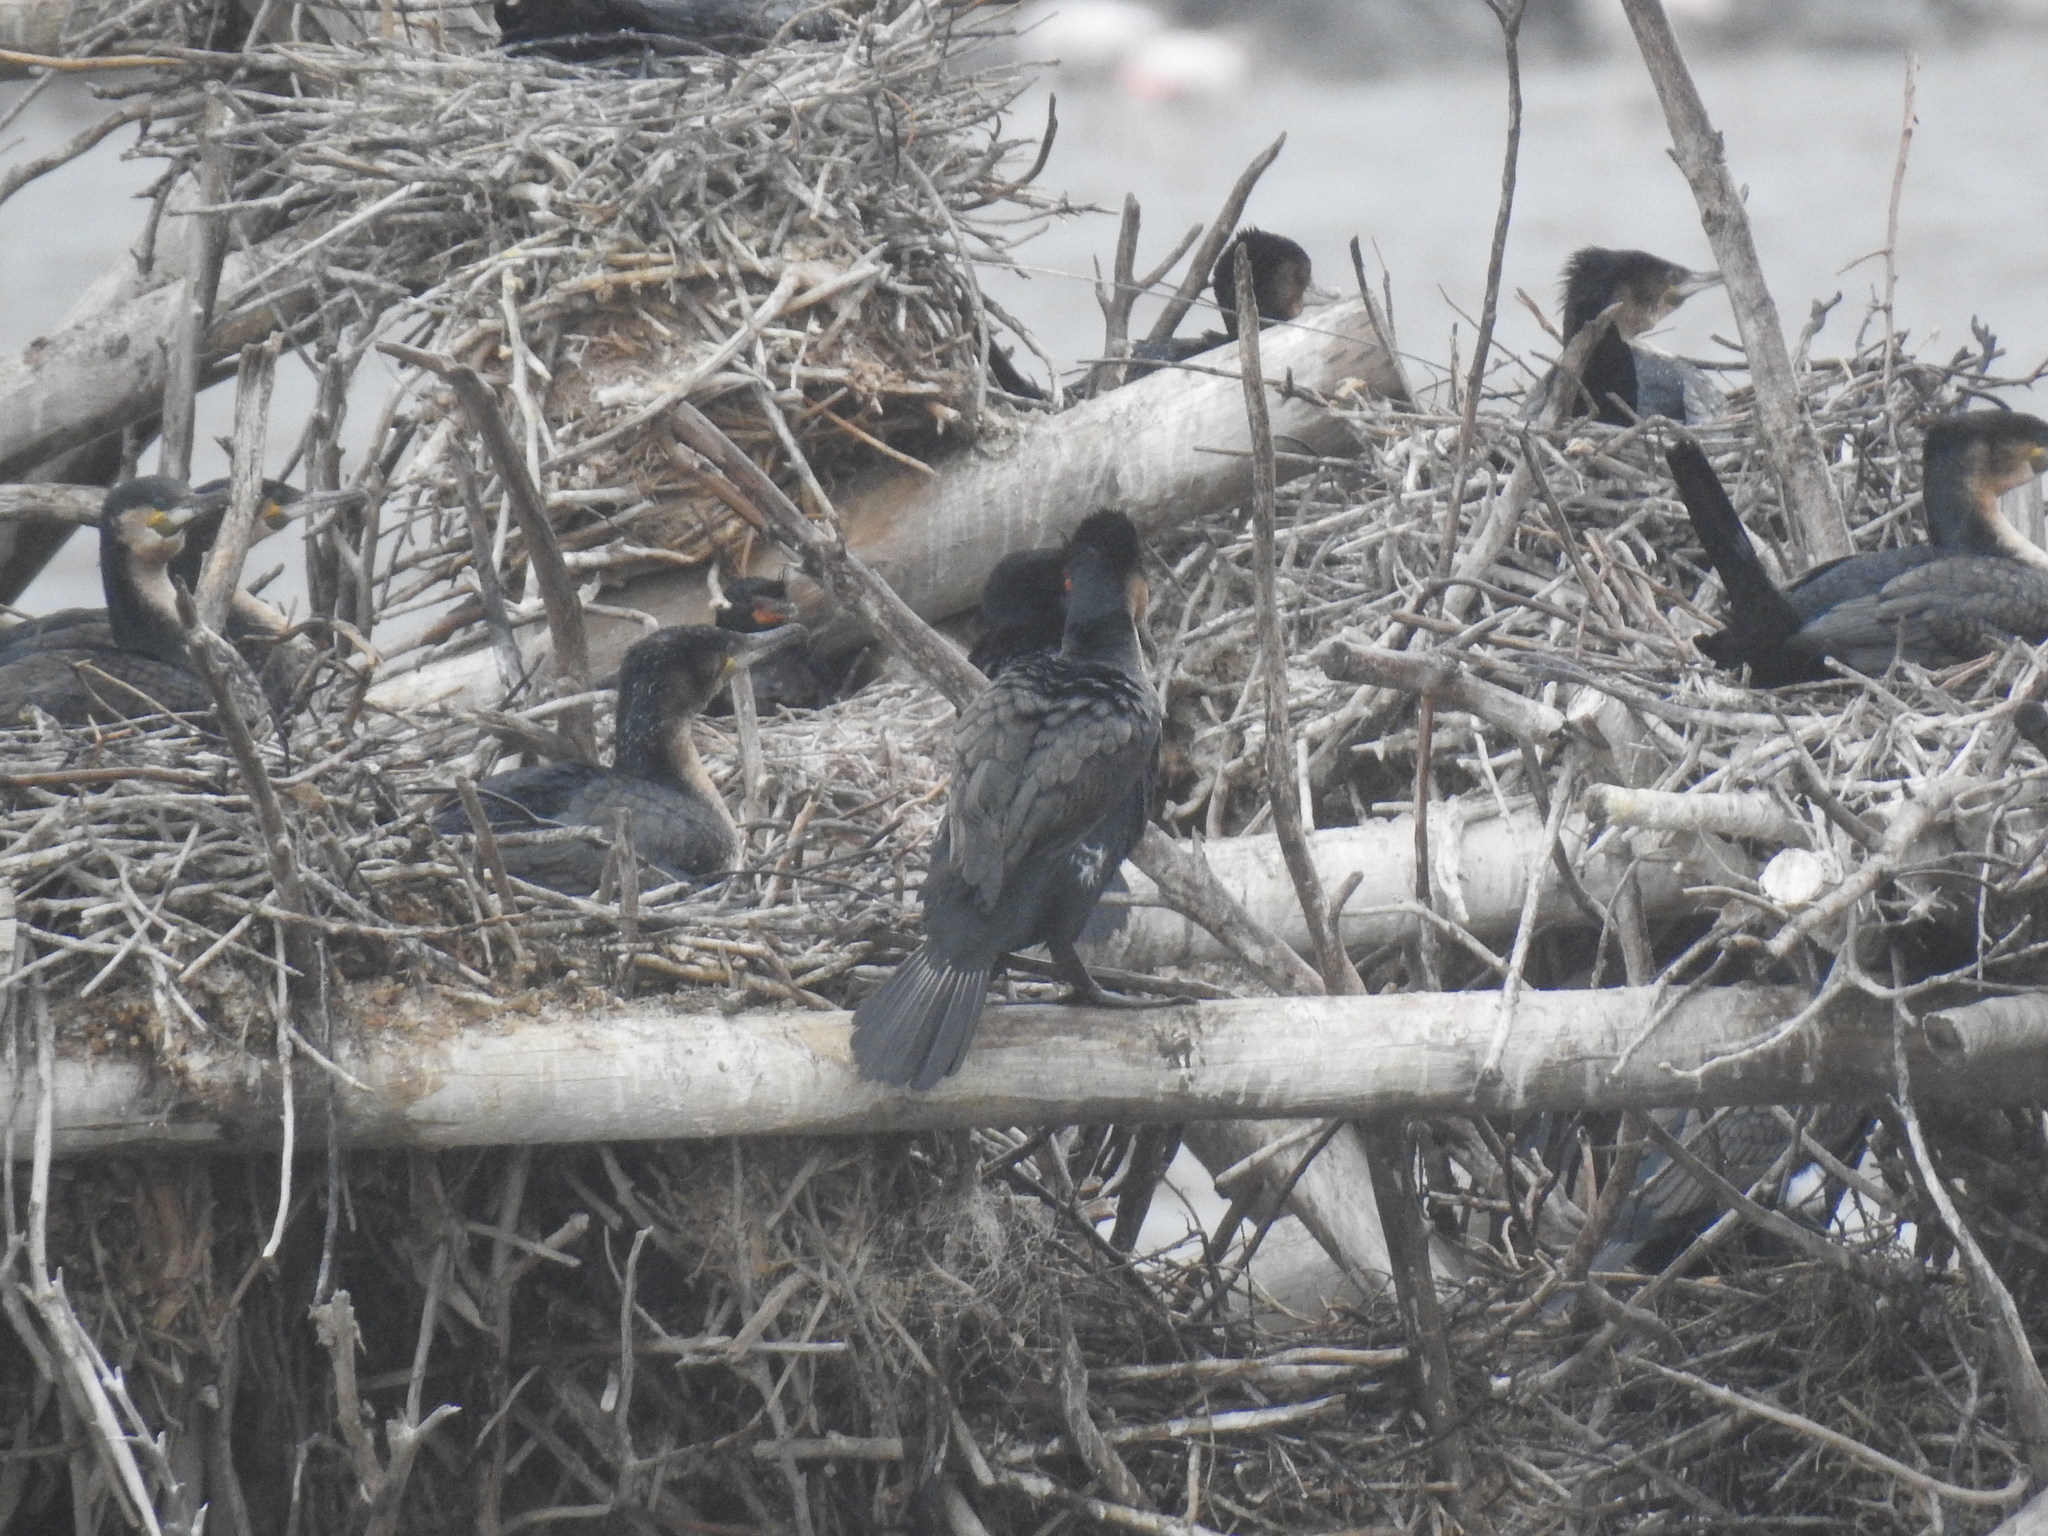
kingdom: Animalia
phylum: Chordata
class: Aves
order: Suliformes
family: Phalacrocoracidae
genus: Phalacrocorax
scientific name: Phalacrocorax carbo
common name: Great cormorant
